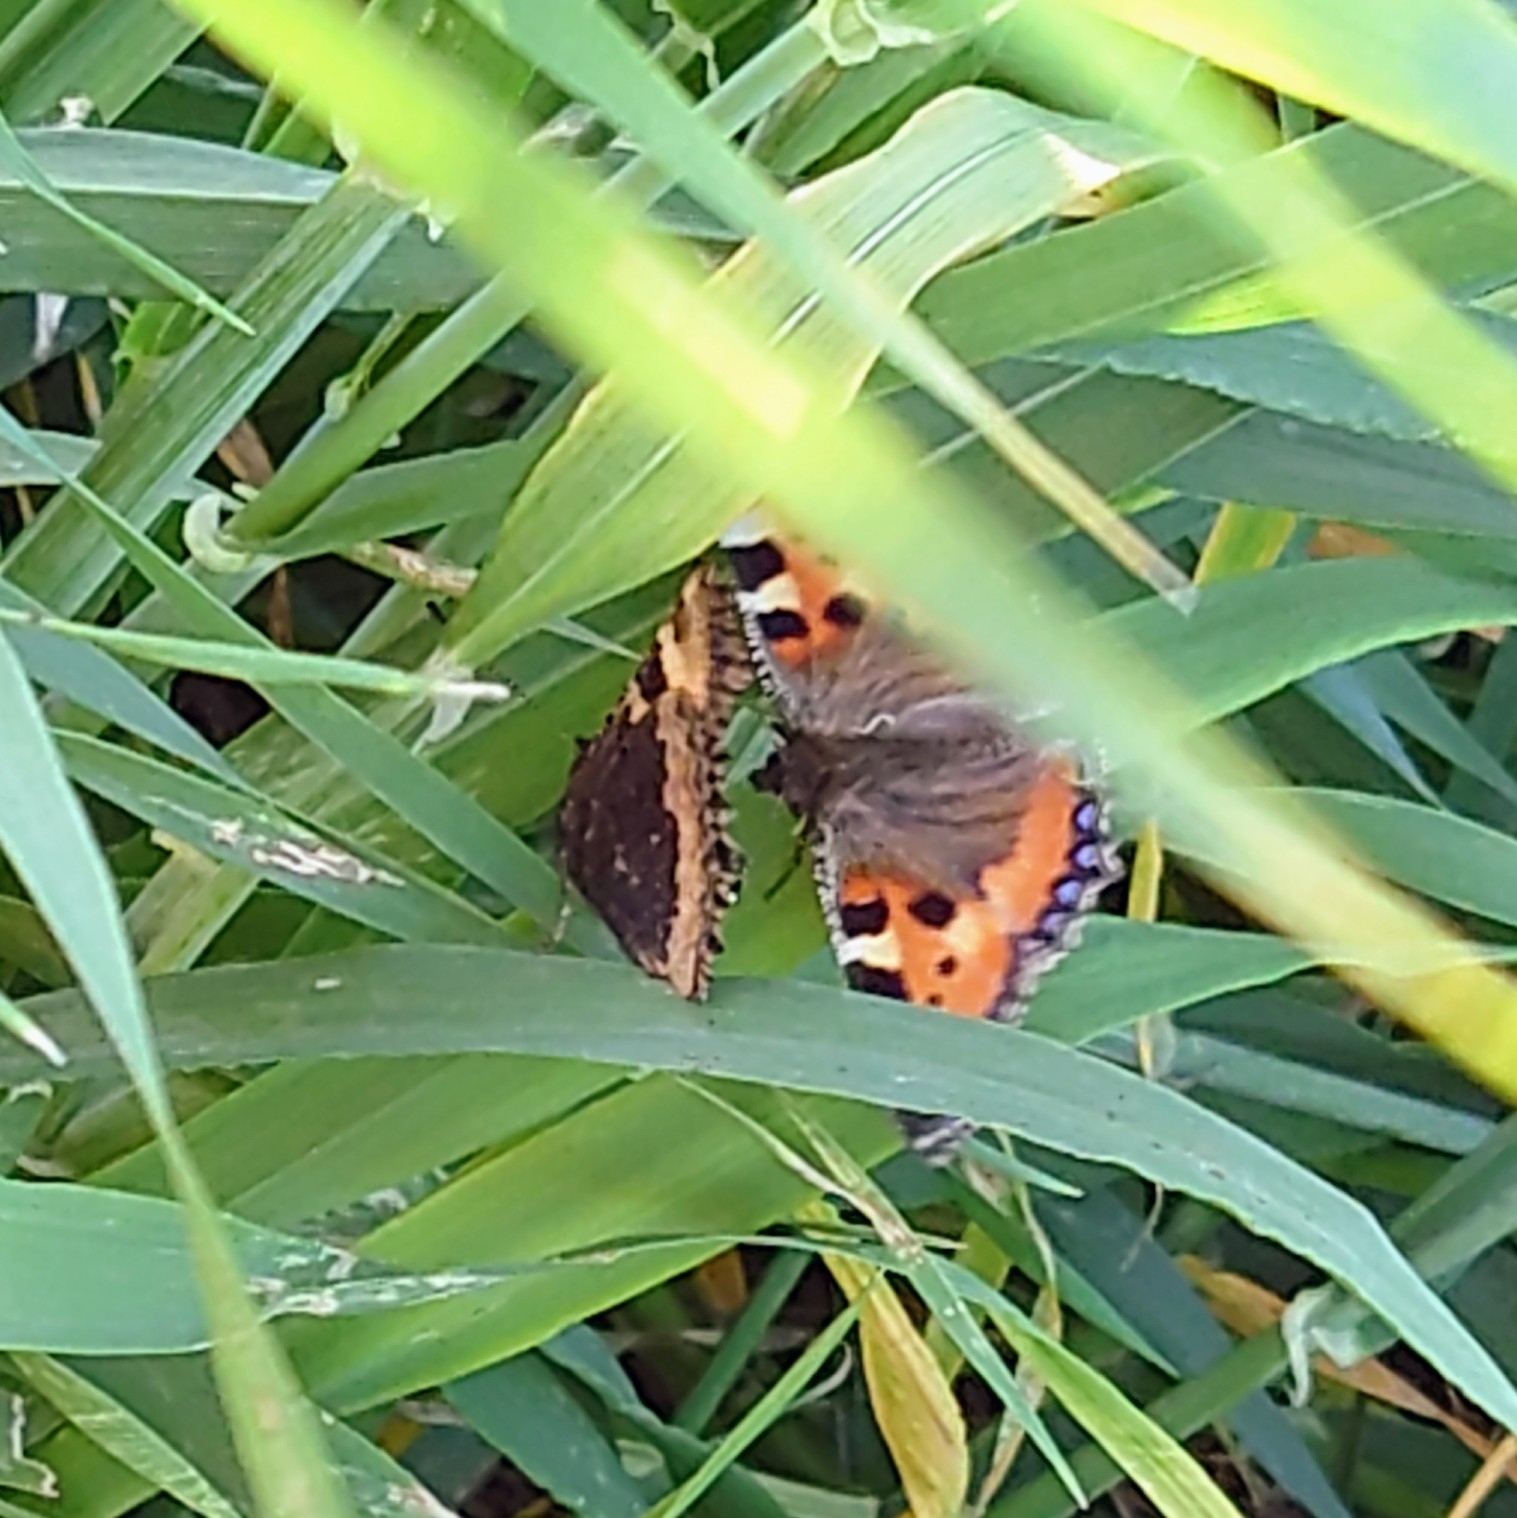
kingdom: Animalia
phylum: Arthropoda
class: Insecta
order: Lepidoptera
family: Nymphalidae
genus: Aglais
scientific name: Aglais urticae
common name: Small tortoiseshell
